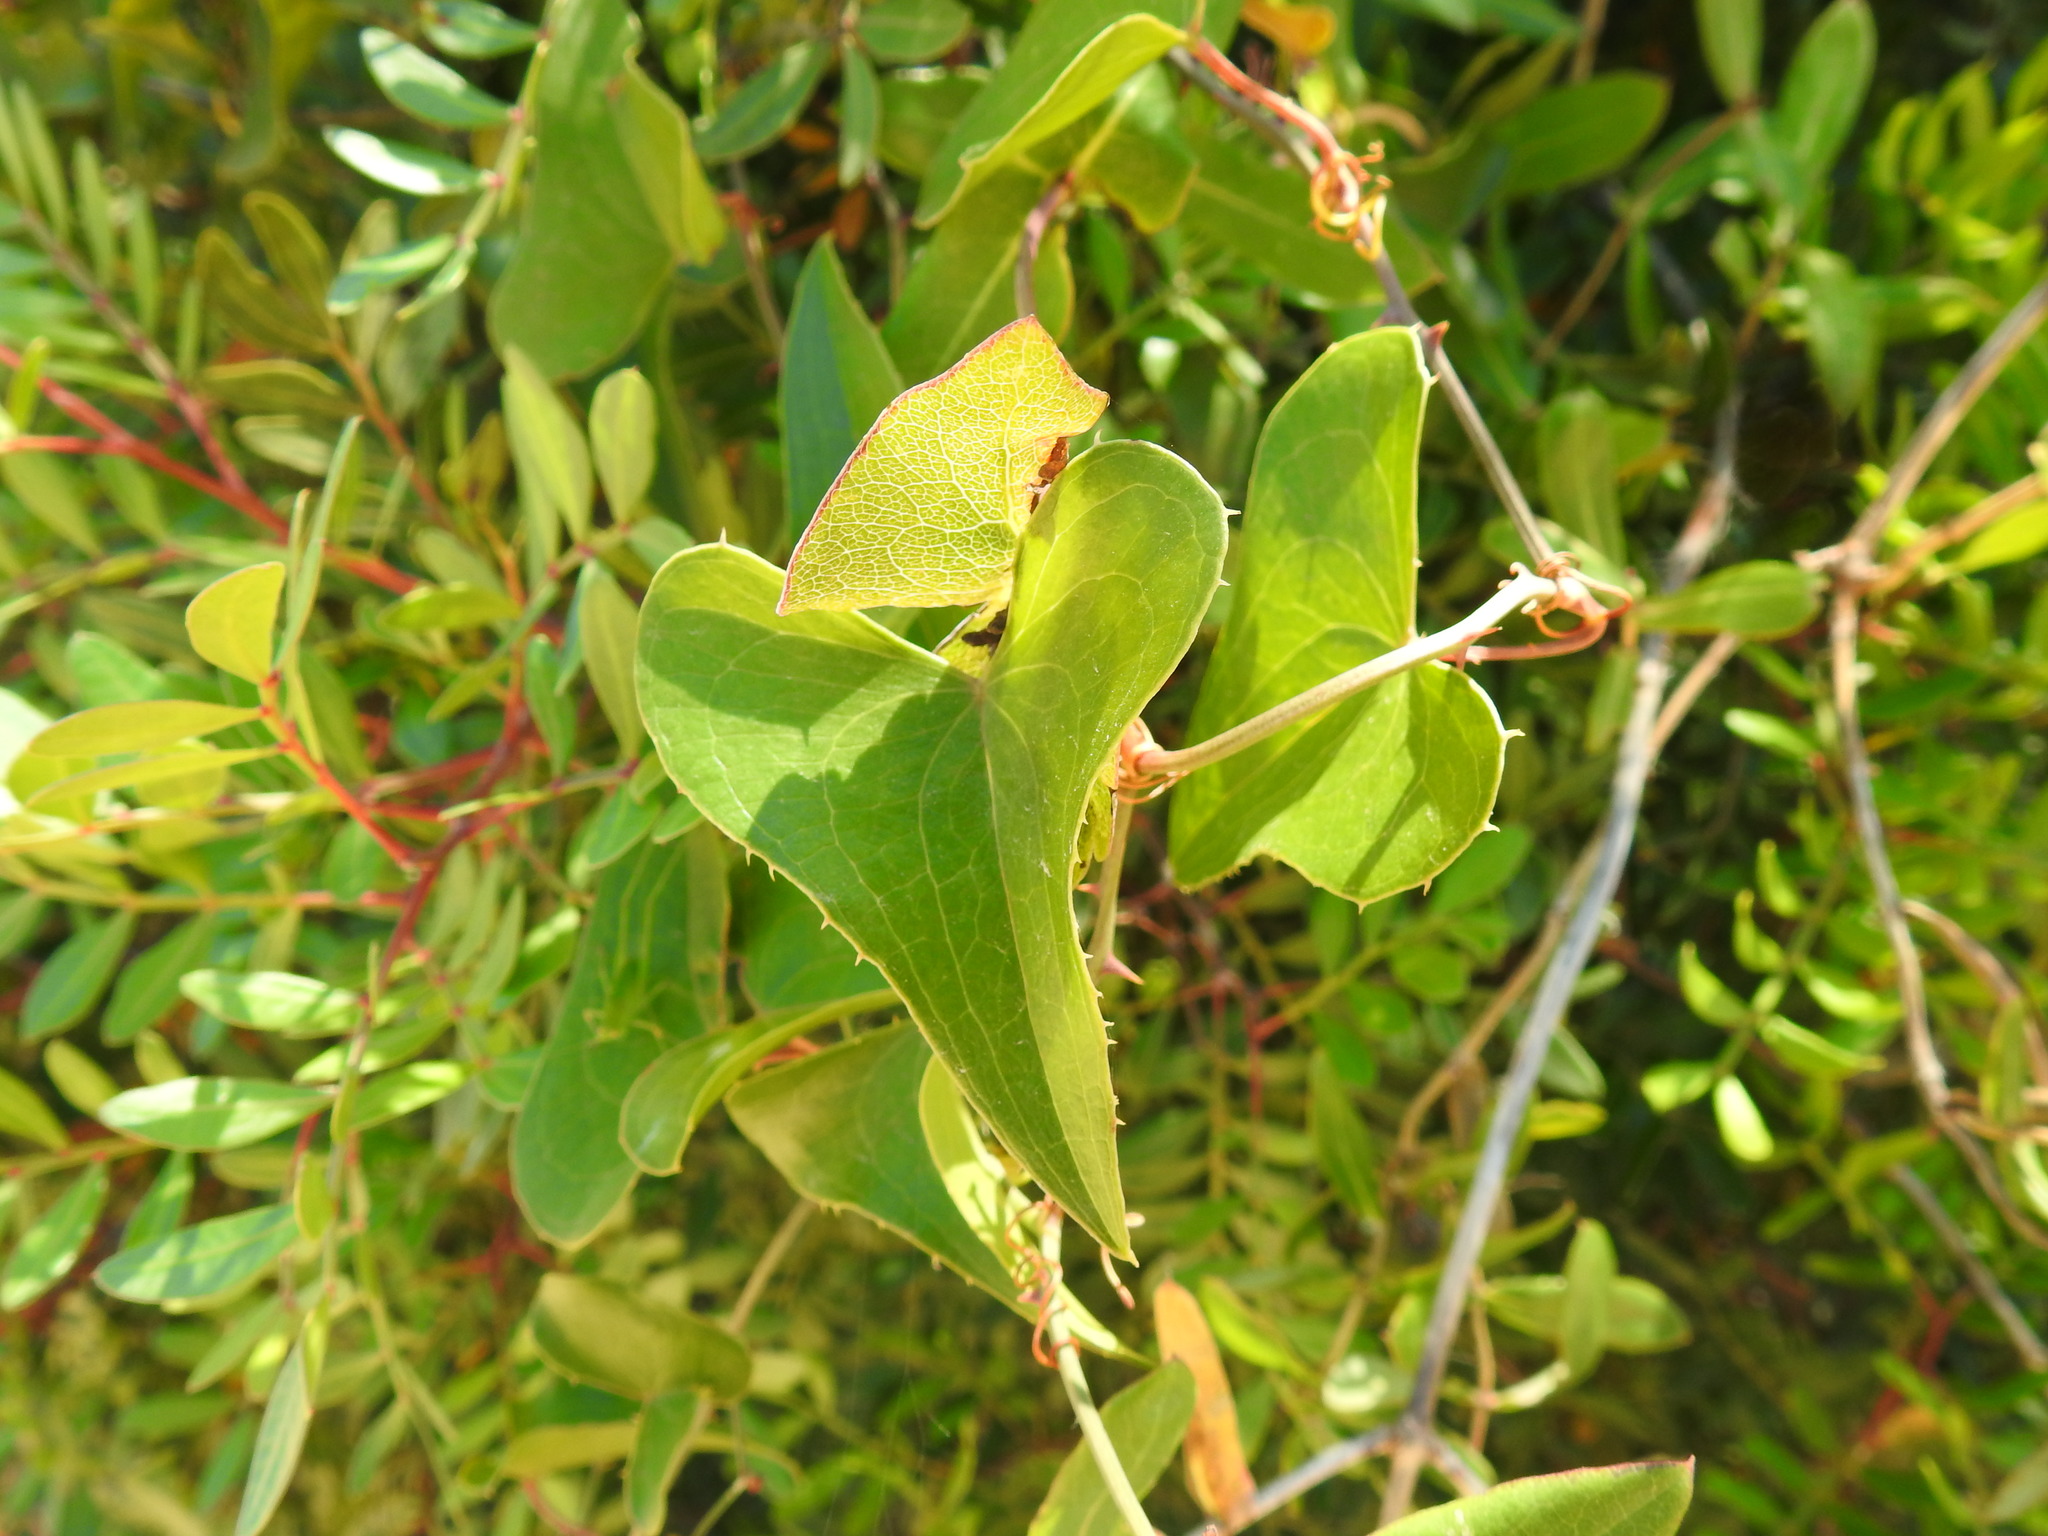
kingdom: Plantae
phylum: Tracheophyta
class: Liliopsida
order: Liliales
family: Smilacaceae
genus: Smilax
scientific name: Smilax aspera
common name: Common smilax
